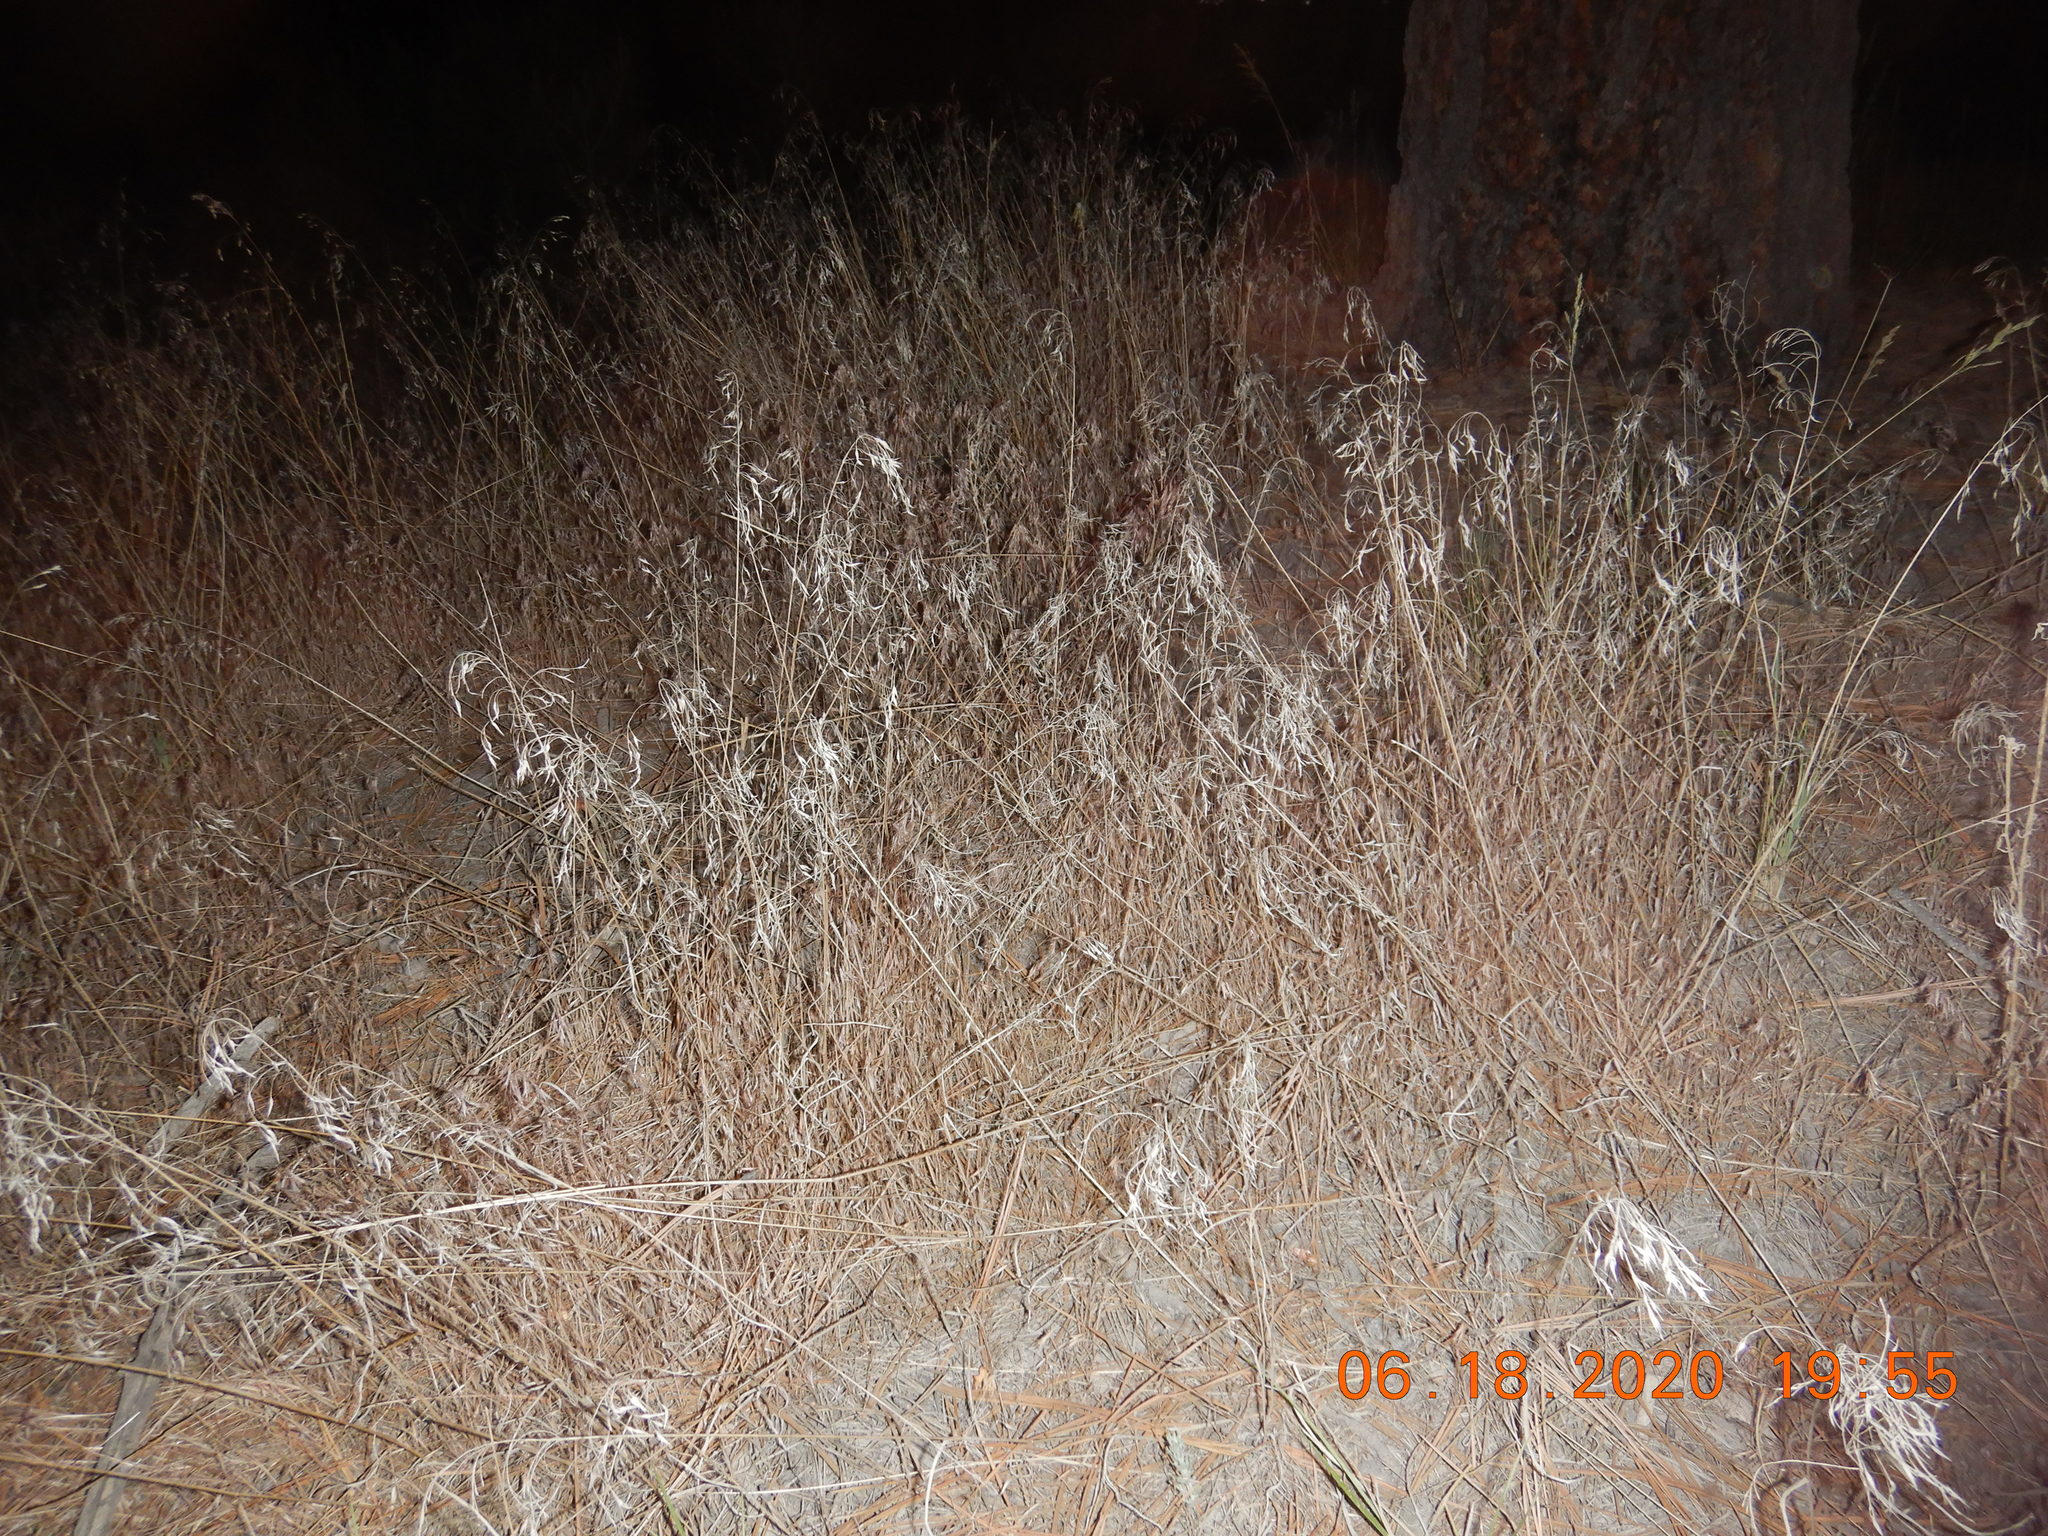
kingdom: Plantae
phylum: Tracheophyta
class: Liliopsida
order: Poales
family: Poaceae
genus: Bromus
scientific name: Bromus tectorum
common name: Cheatgrass
